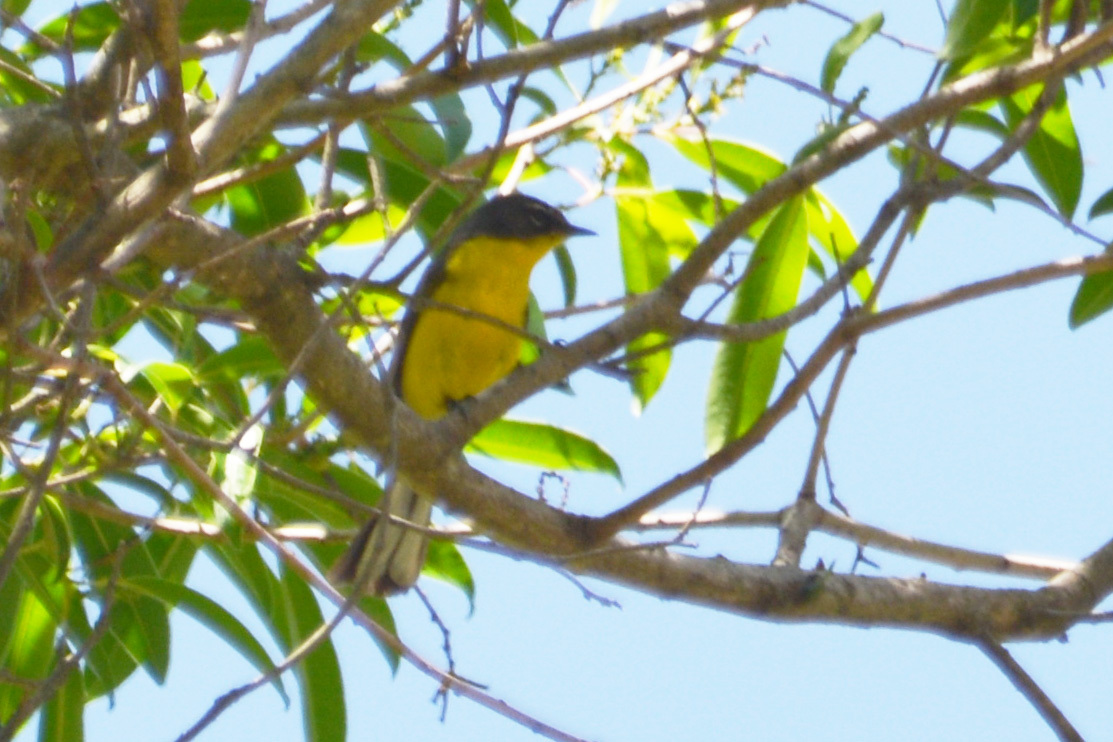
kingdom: Animalia
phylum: Chordata
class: Aves
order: Passeriformes
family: Parulidae
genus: Myioborus
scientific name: Myioborus brunniceps
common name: Brown-capped whitestart
